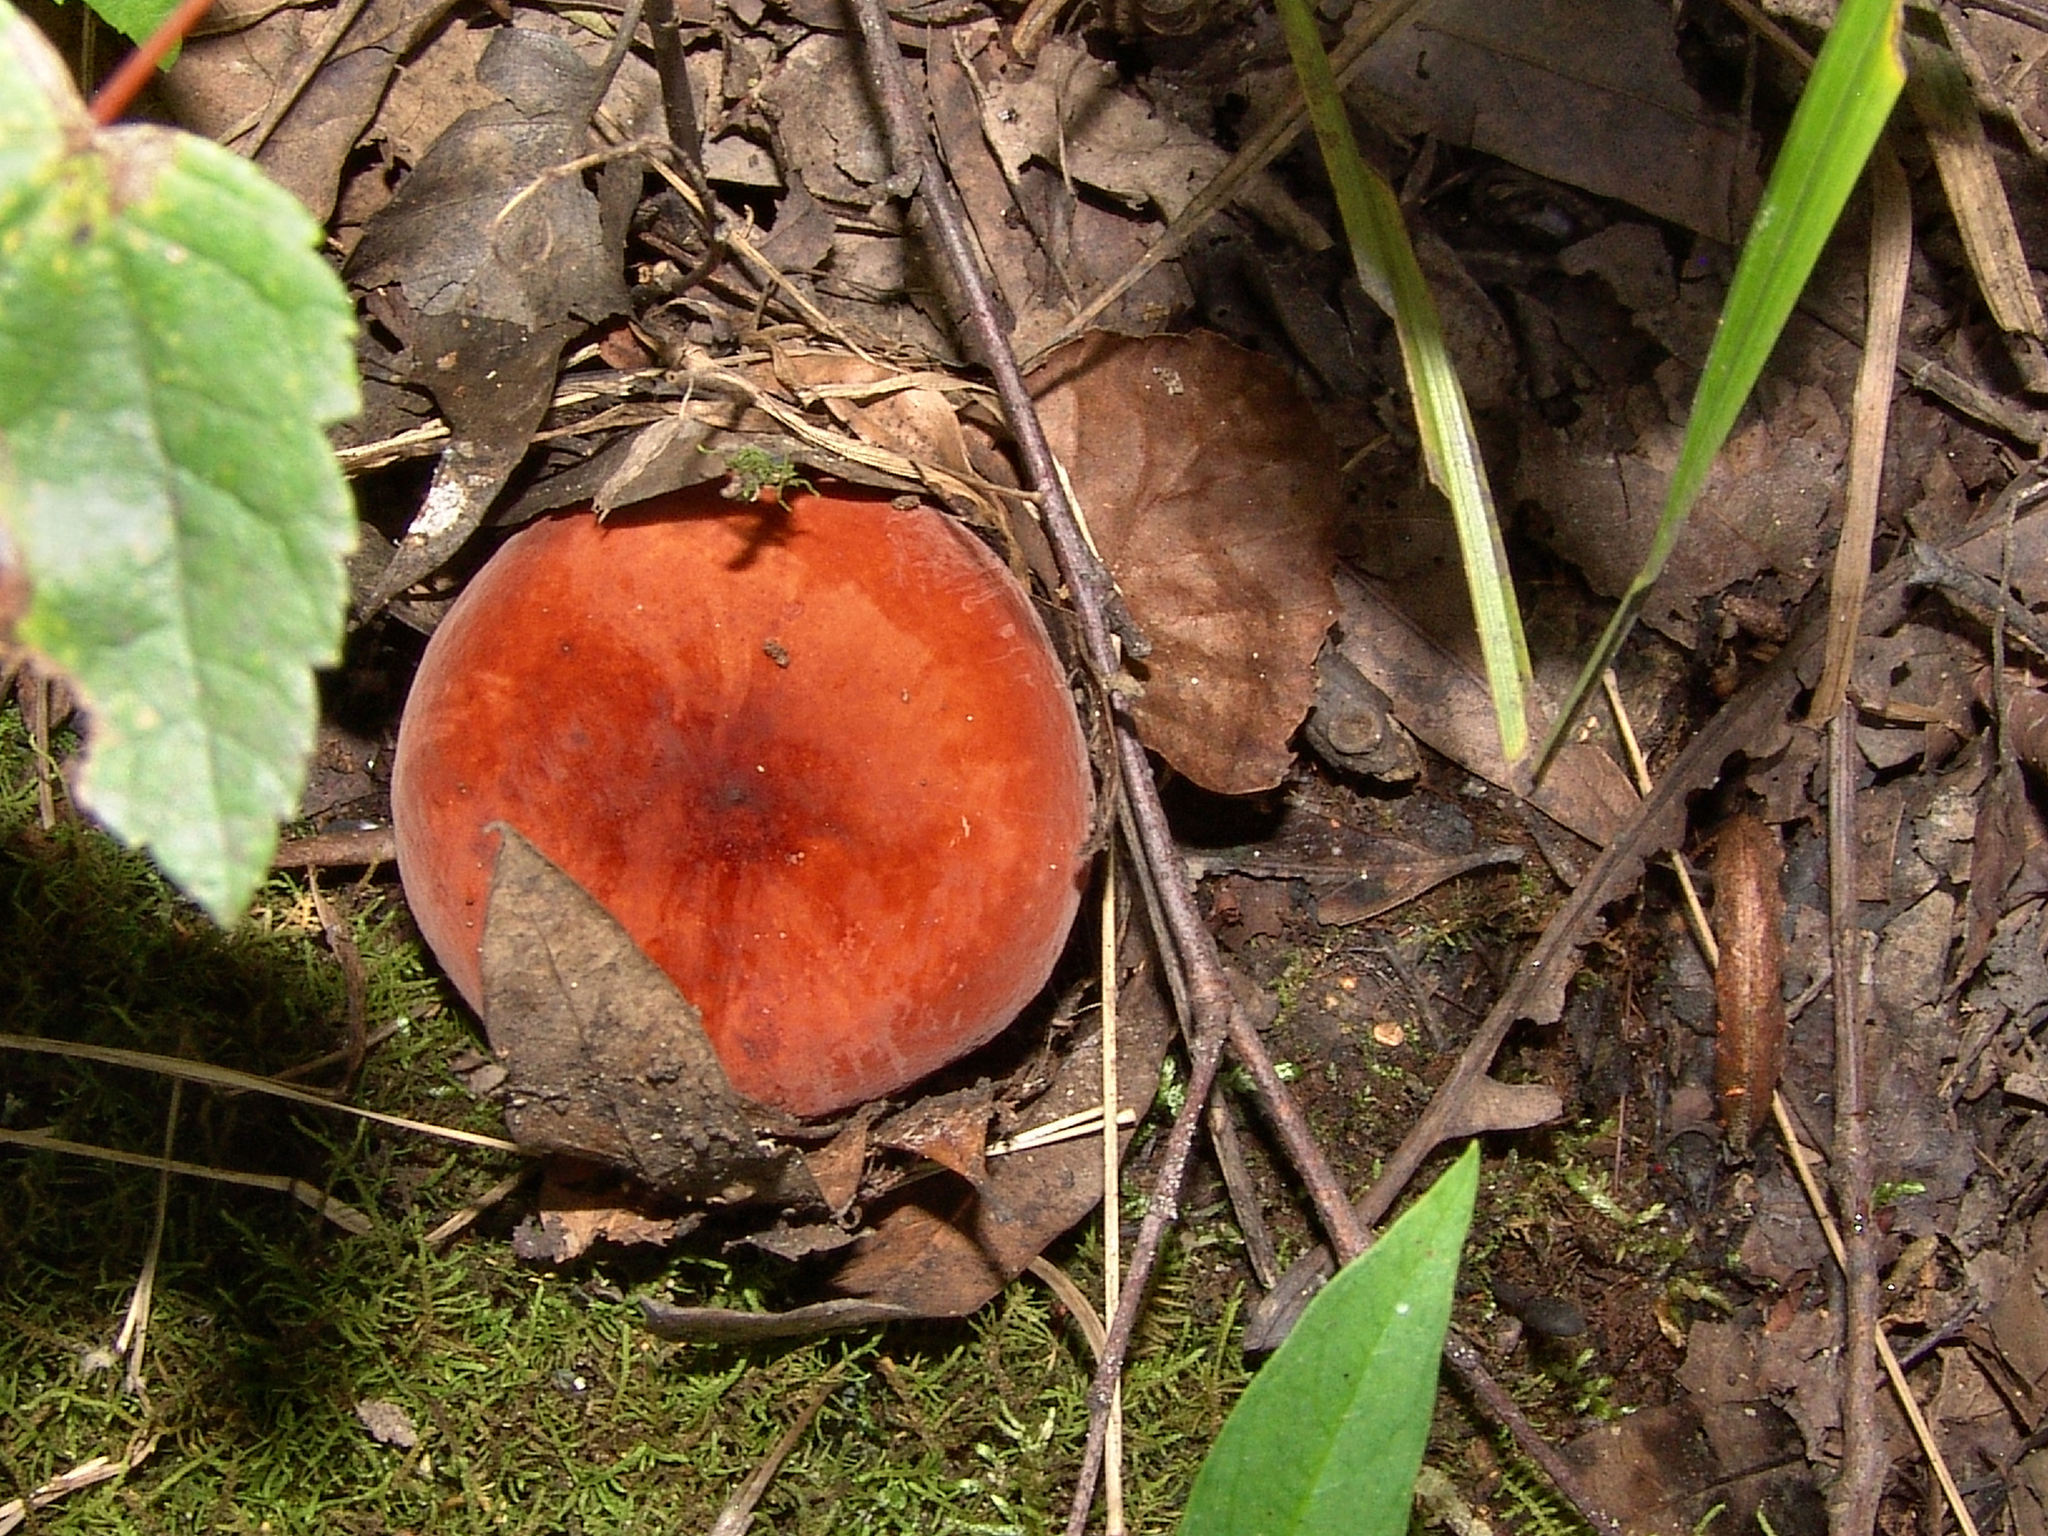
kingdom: Fungi
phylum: Basidiomycota
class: Agaricomycetes
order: Russulales
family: Russulaceae
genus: Lactarius
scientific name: Lactarius corrugis
